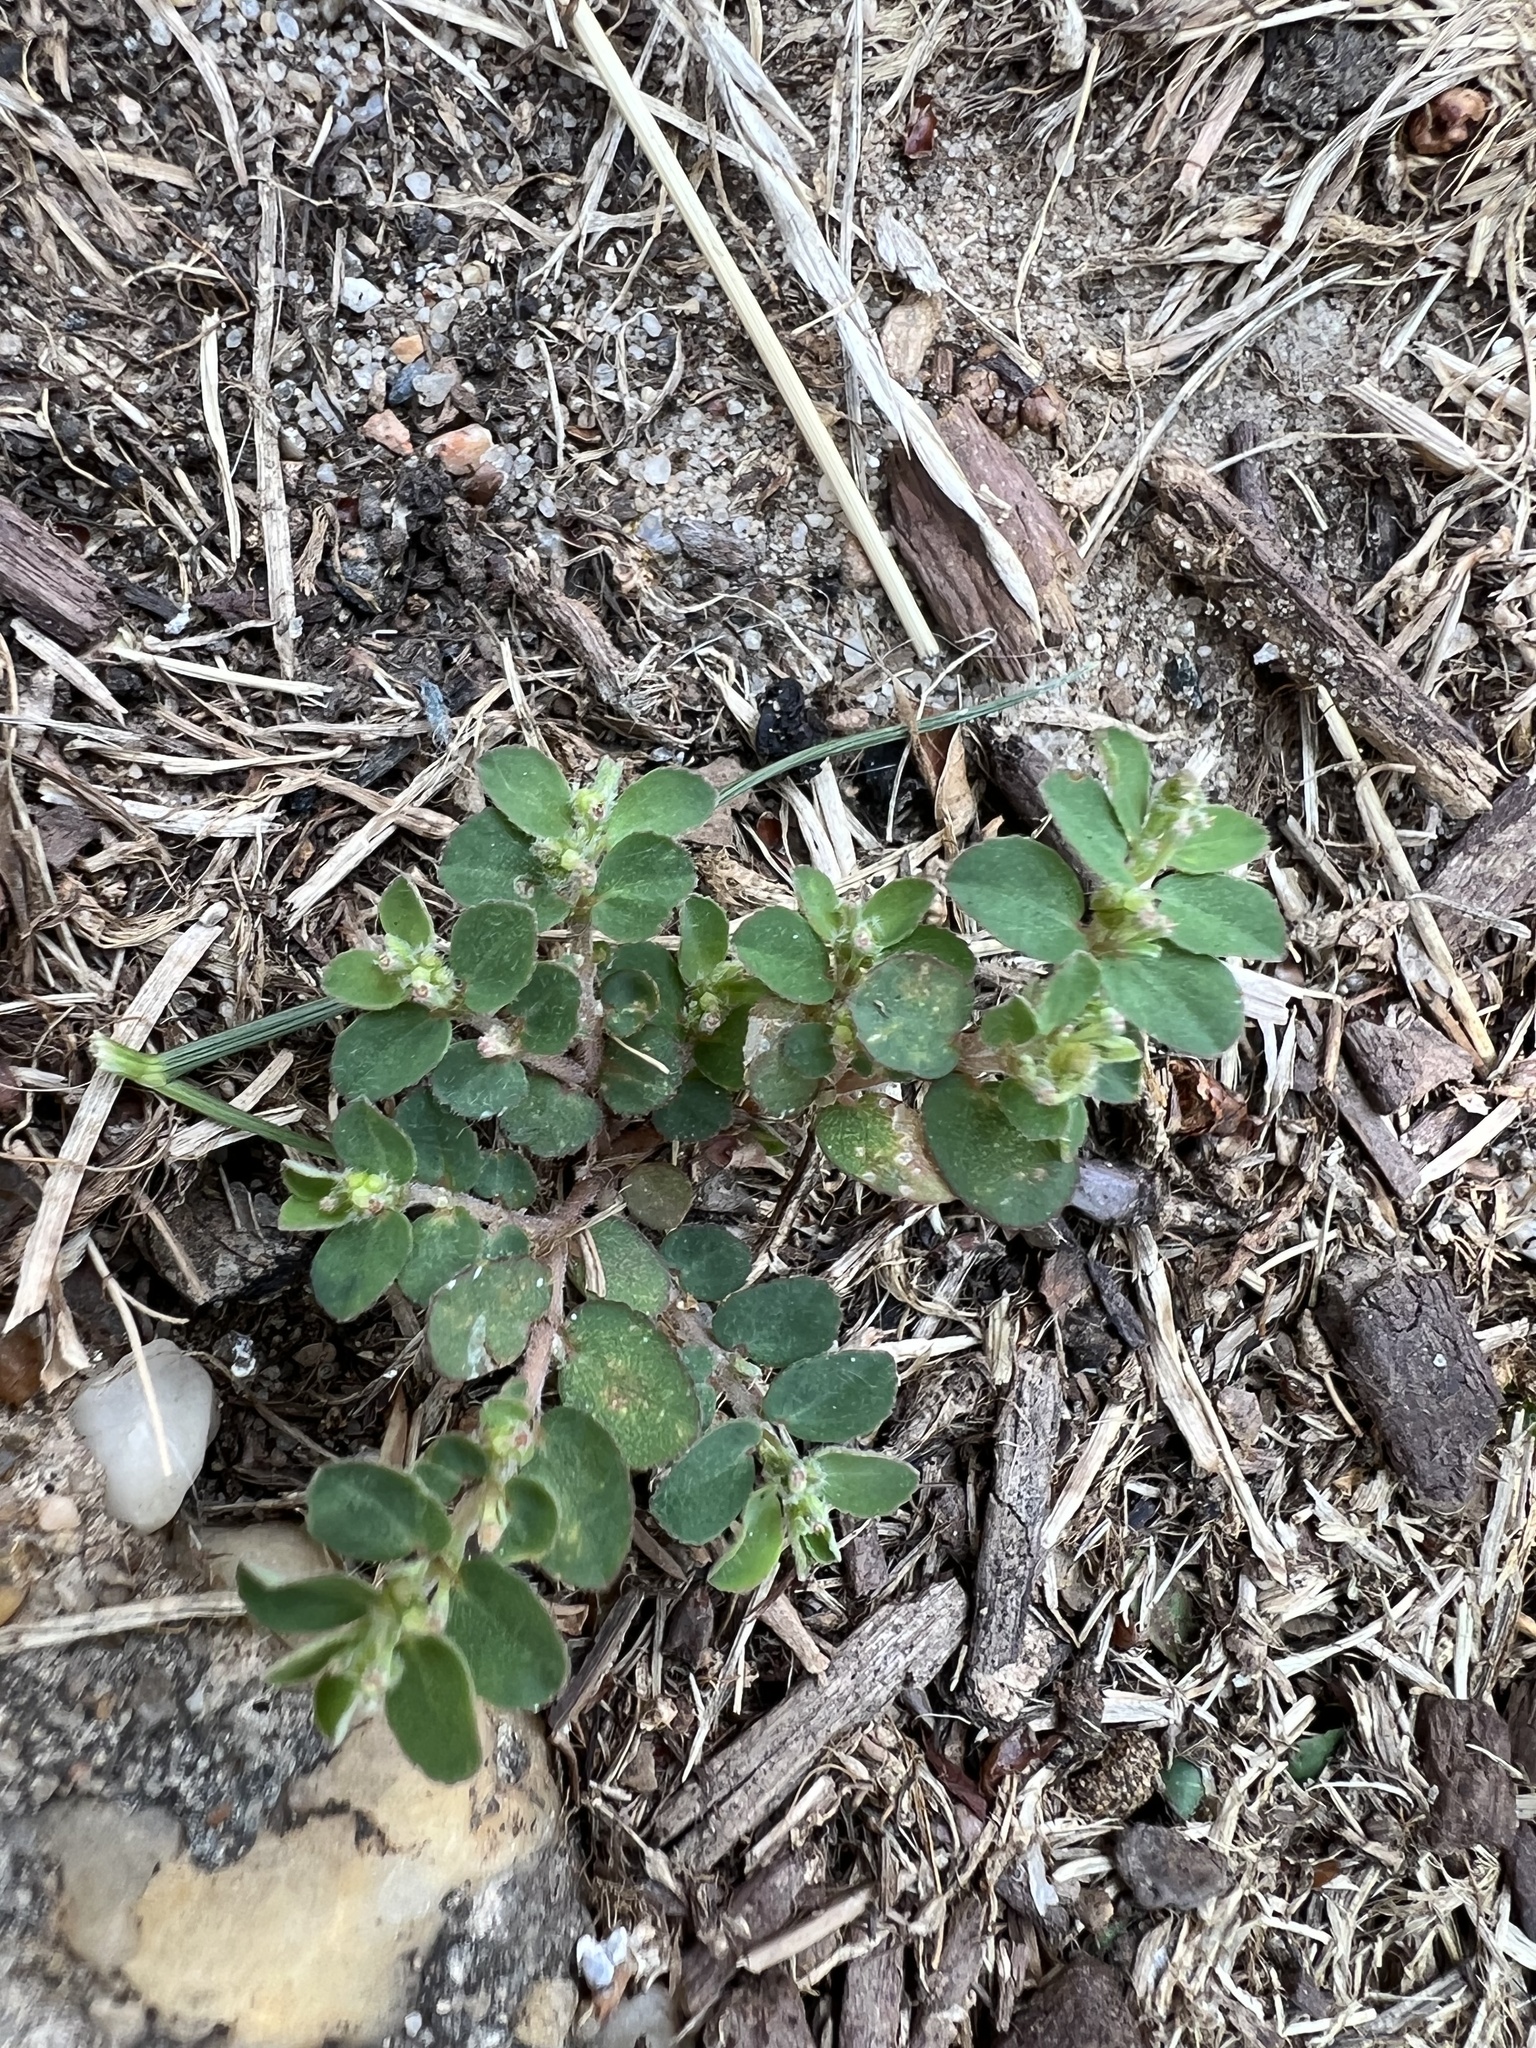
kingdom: Plantae
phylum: Tracheophyta
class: Magnoliopsida
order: Malpighiales
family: Euphorbiaceae
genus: Euphorbia
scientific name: Euphorbia prostrata
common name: Prostrate sandmat
